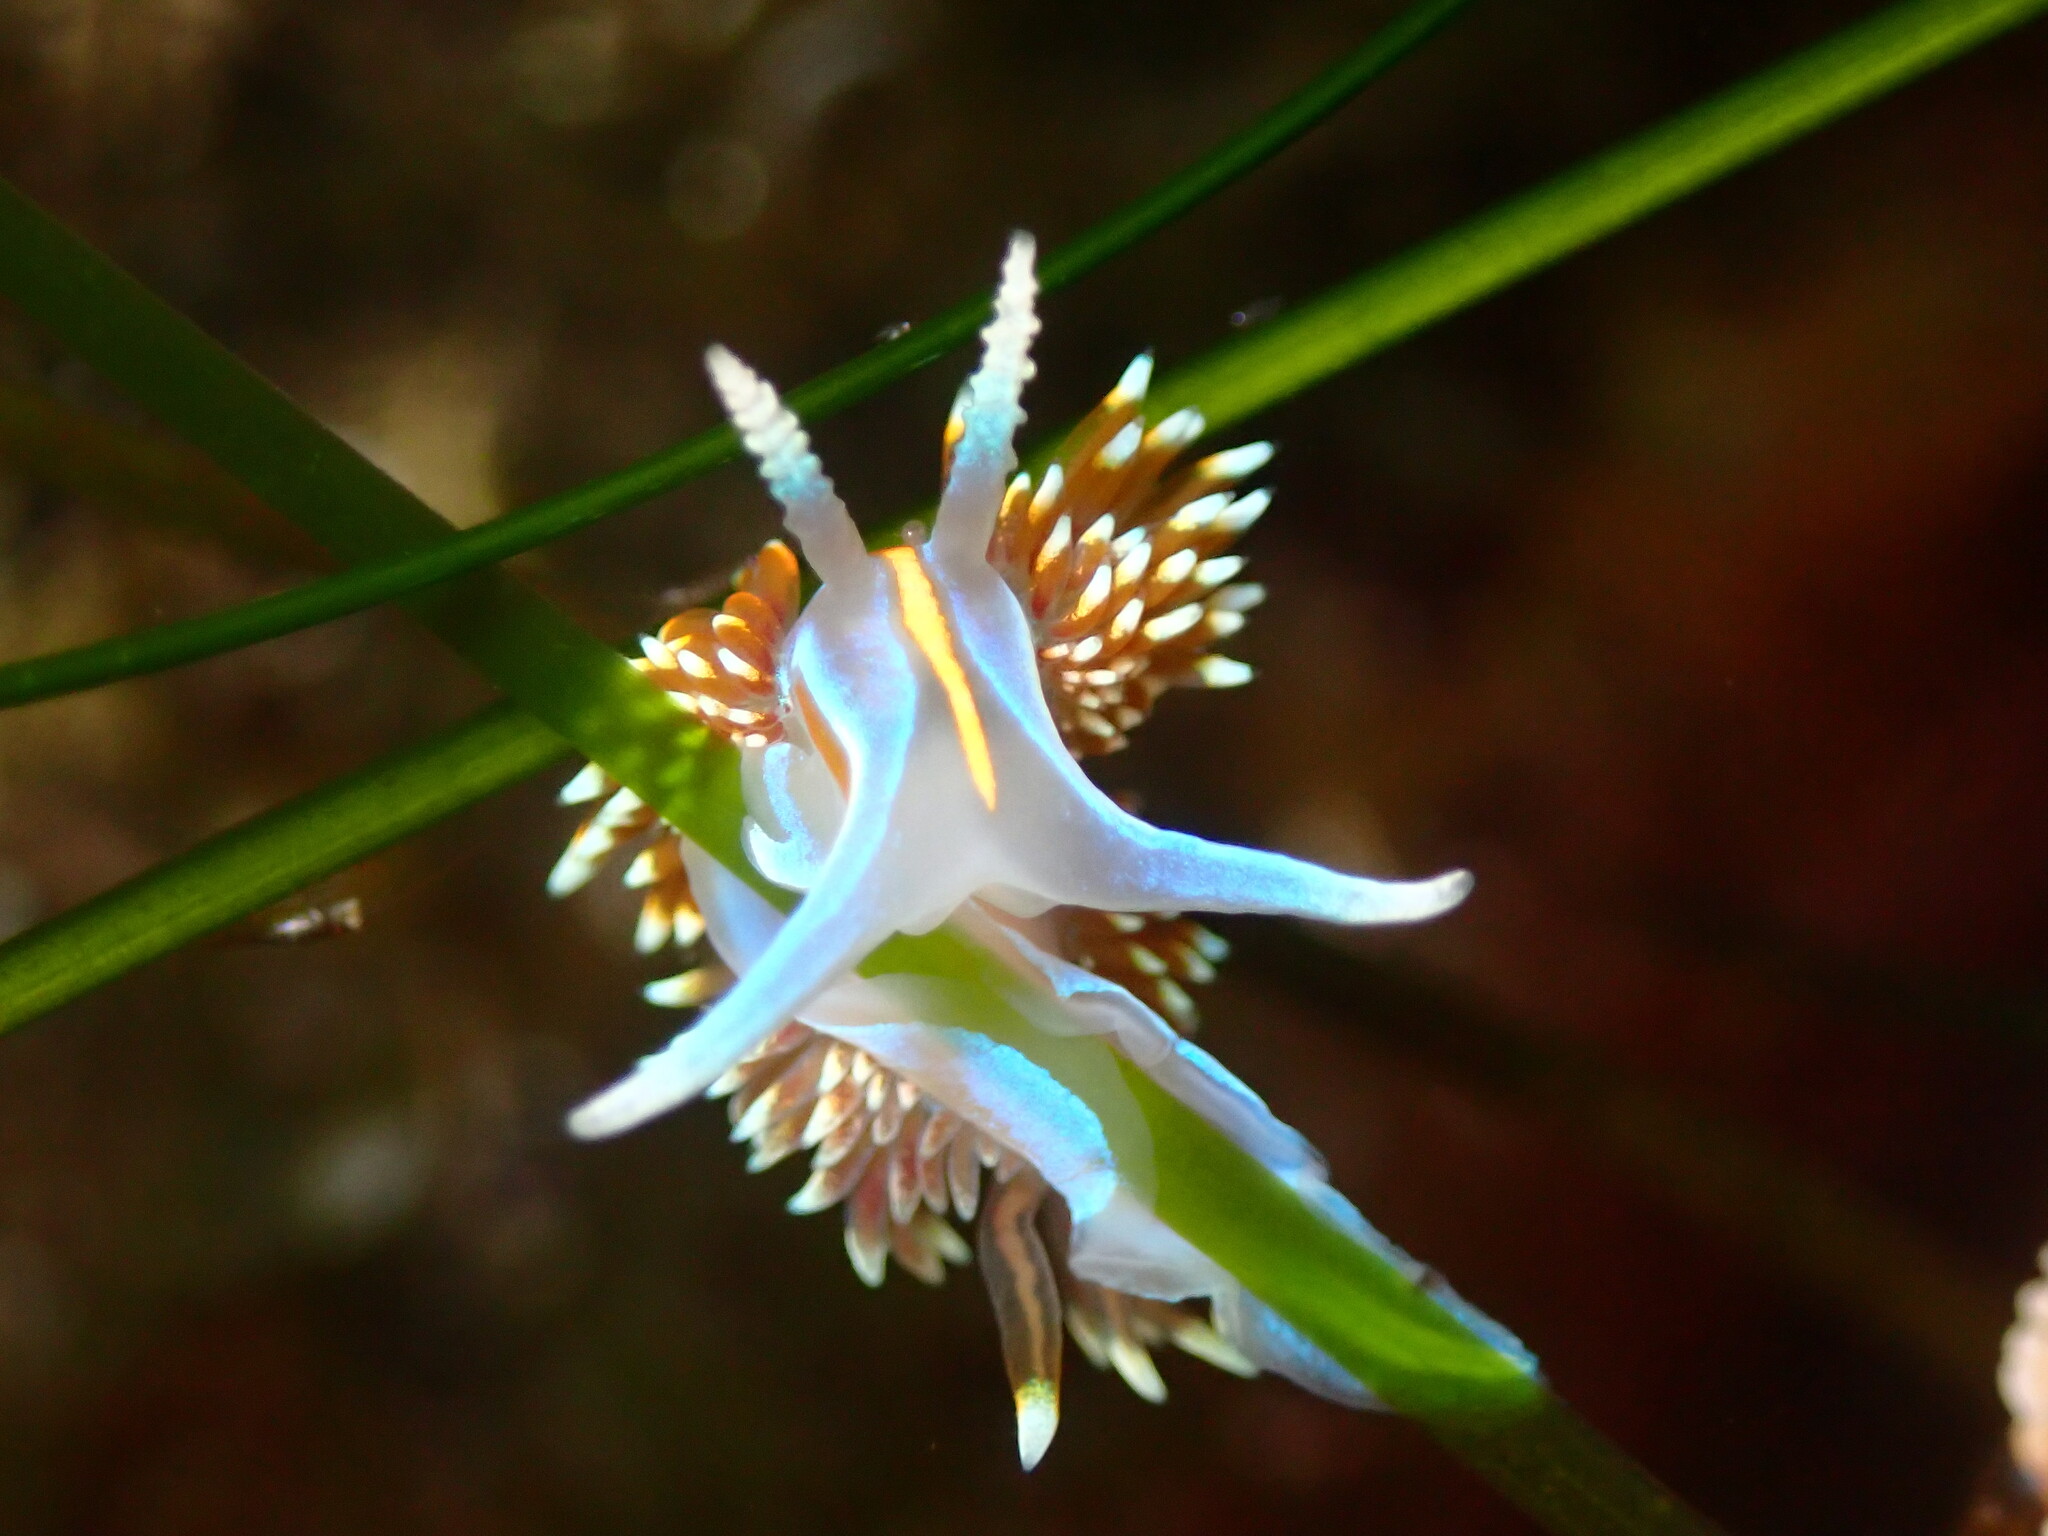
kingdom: Animalia
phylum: Mollusca
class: Gastropoda
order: Nudibranchia
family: Myrrhinidae
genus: Hermissenda
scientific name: Hermissenda opalescens
